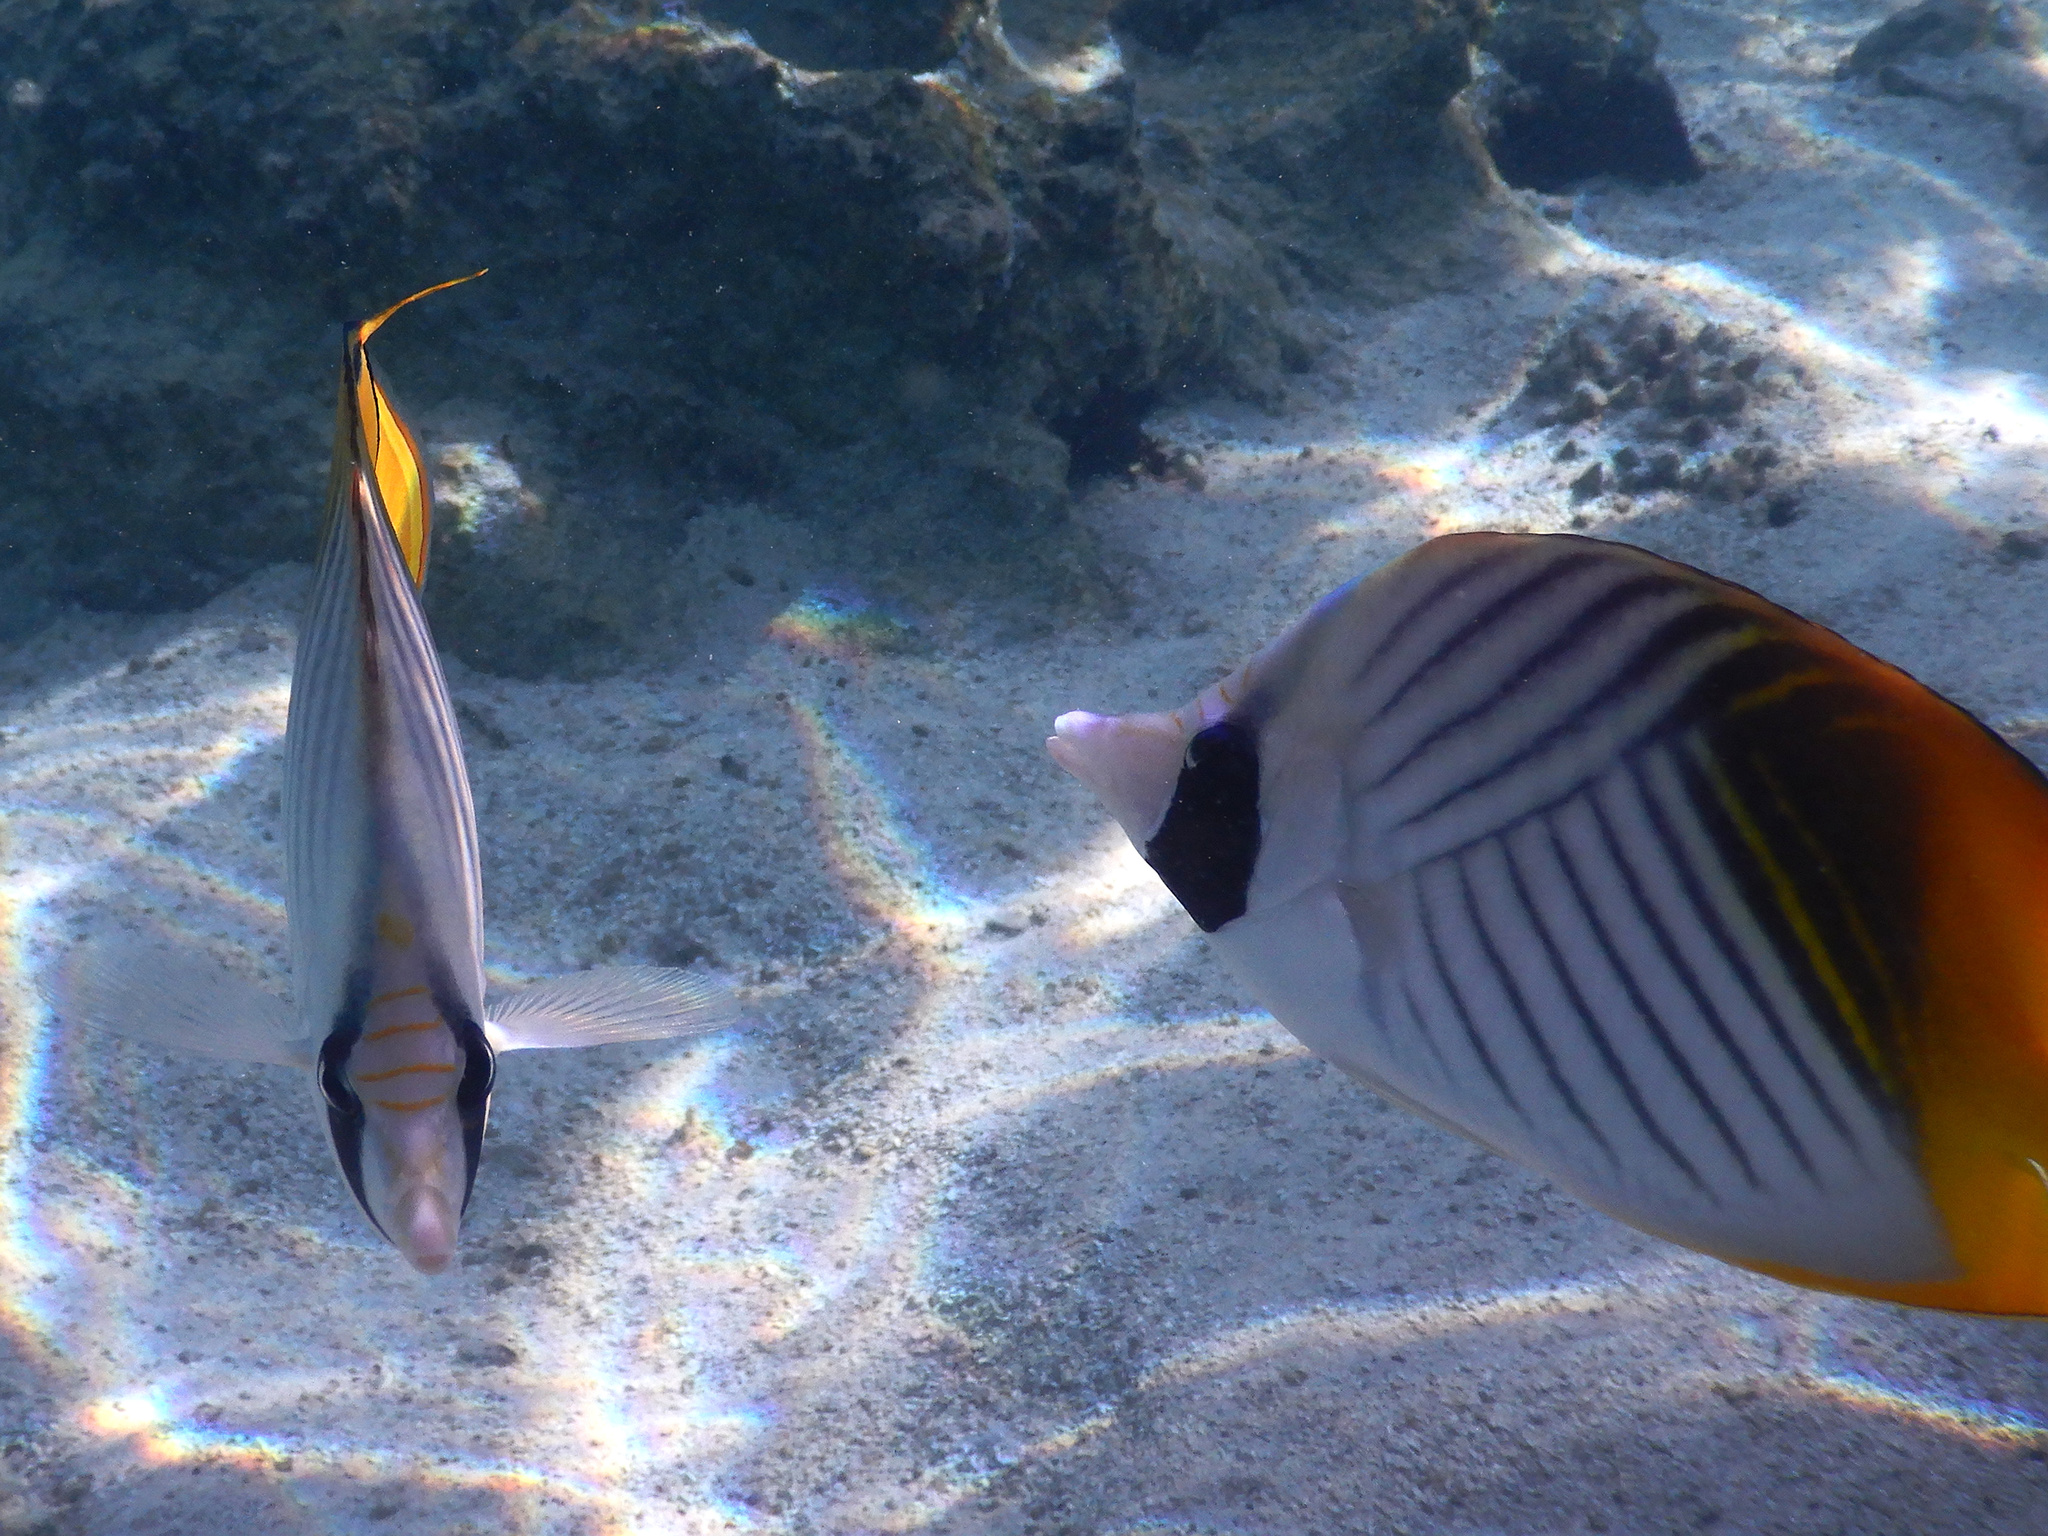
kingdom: Animalia
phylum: Chordata
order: Perciformes
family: Chaetodontidae
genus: Chaetodon
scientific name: Chaetodon auriga
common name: Threadfin butterflyfish
